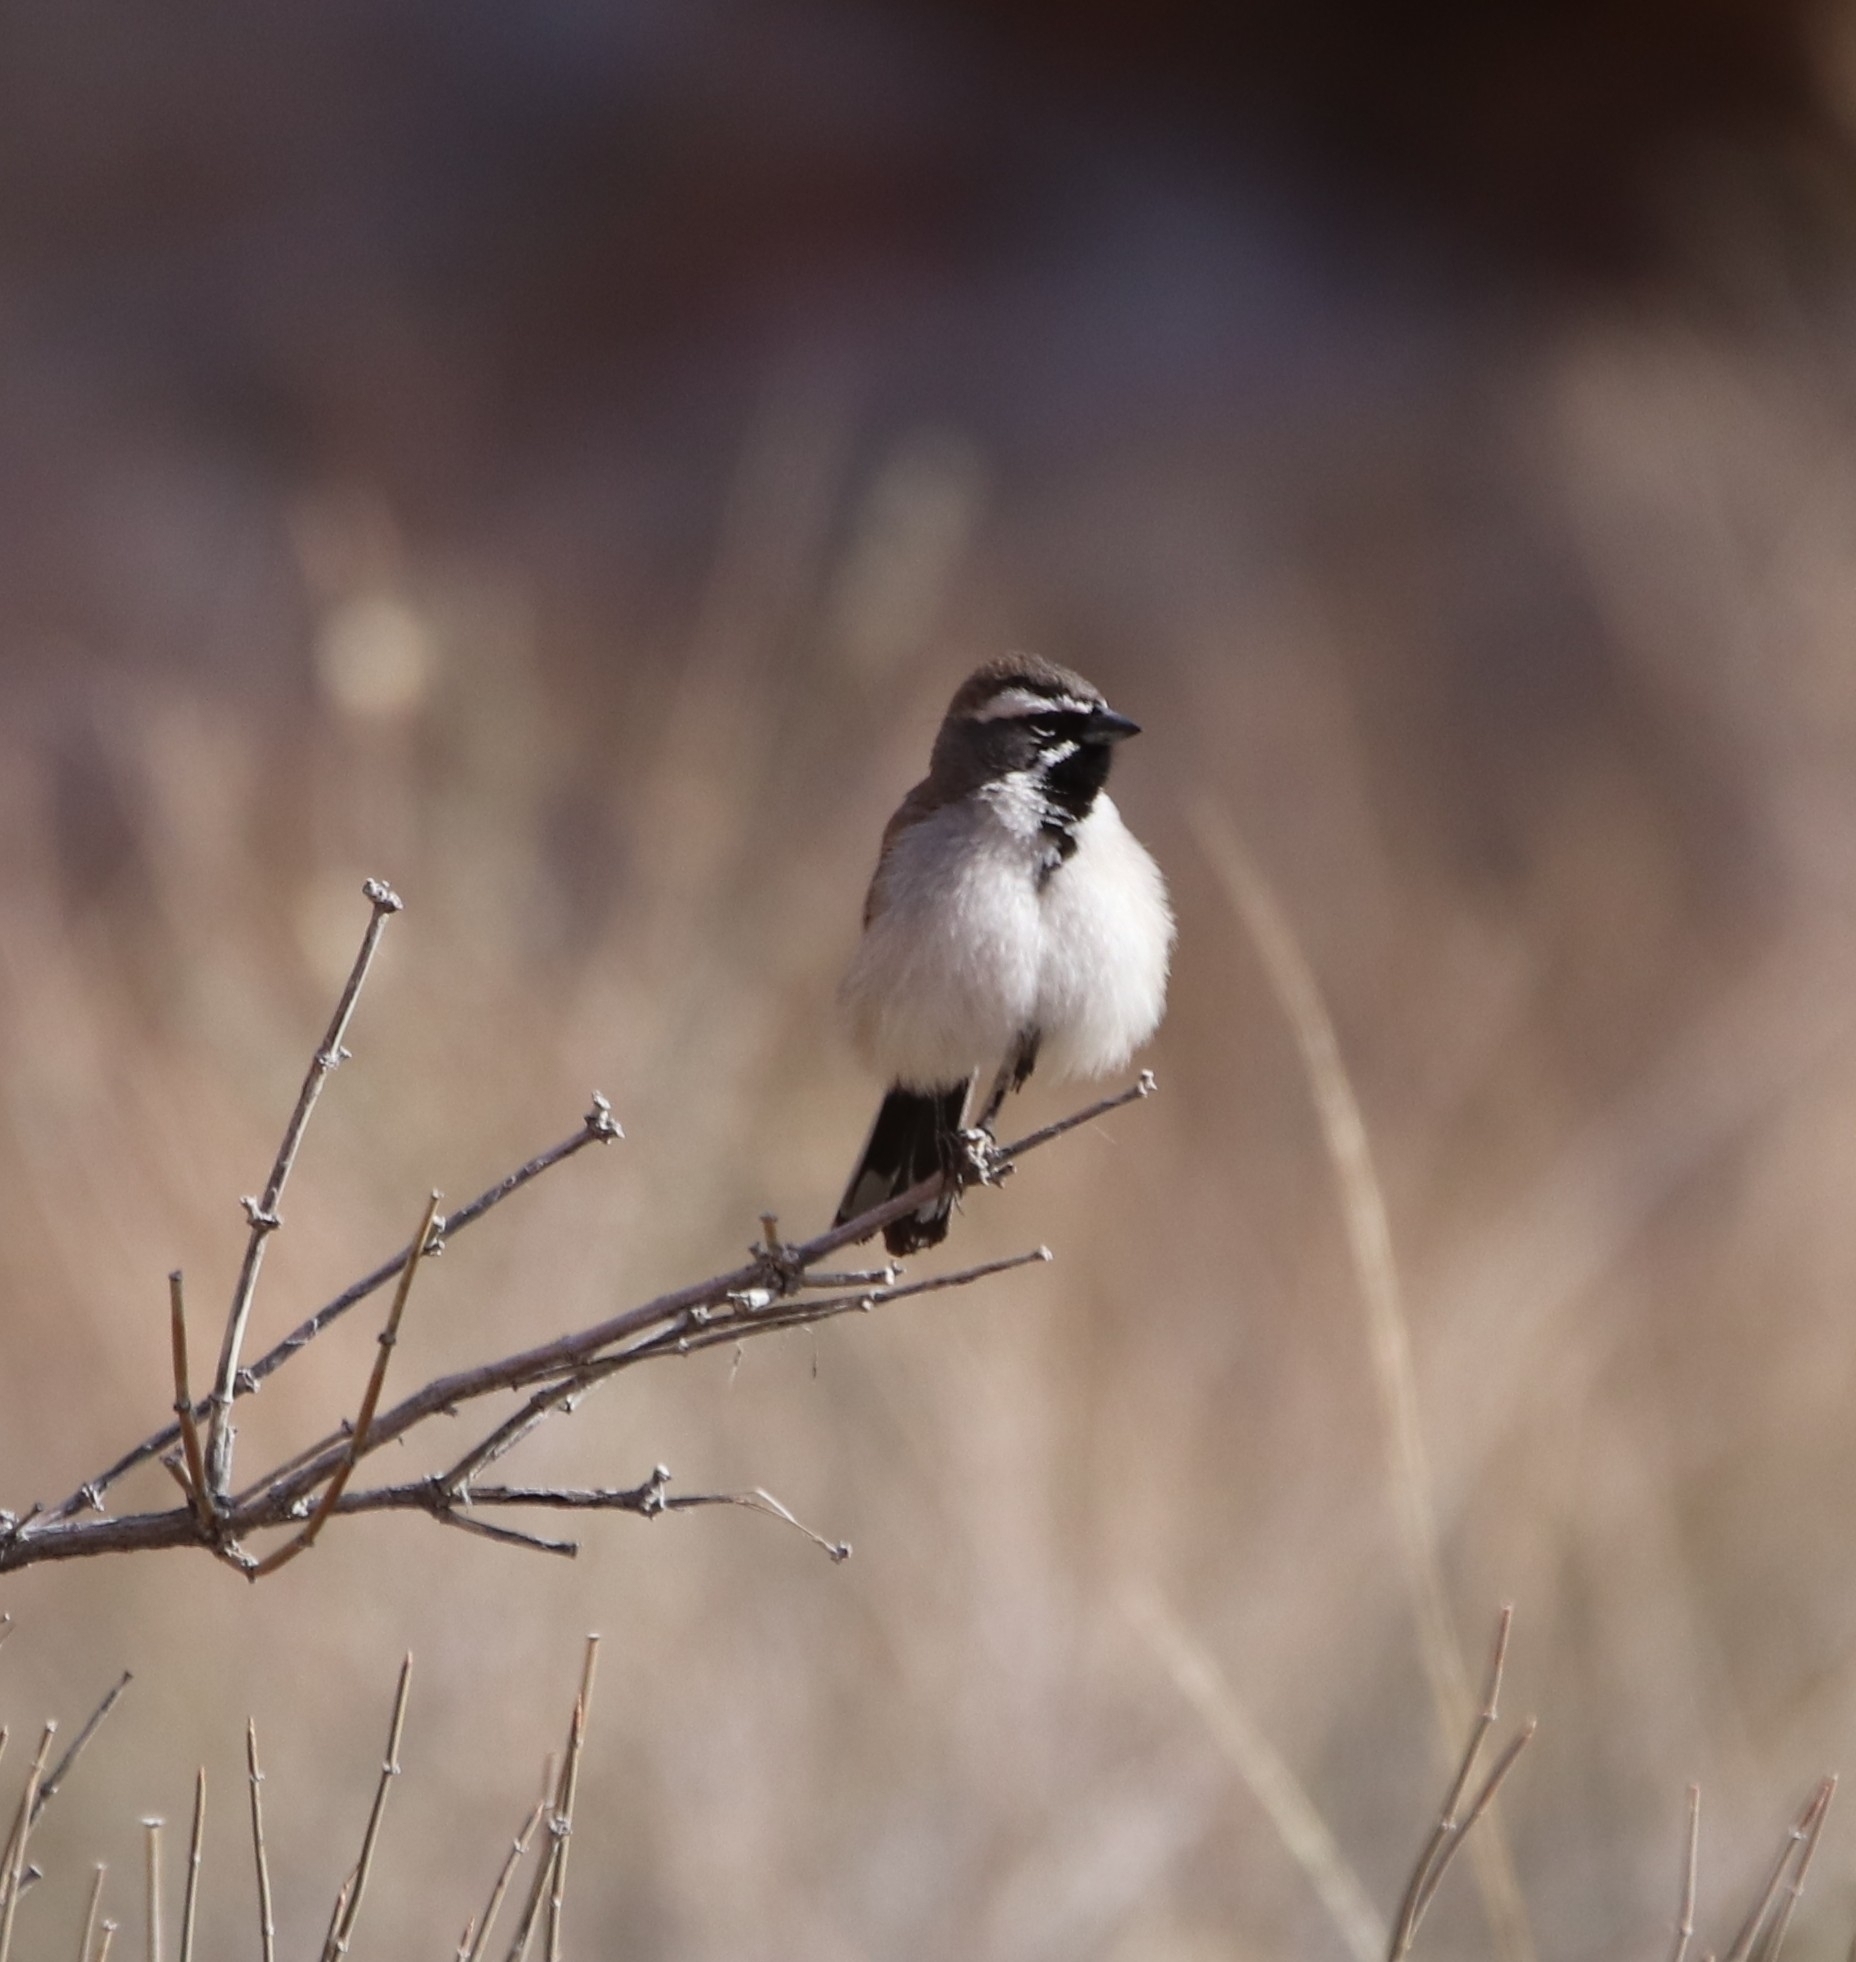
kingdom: Animalia
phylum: Chordata
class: Aves
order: Passeriformes
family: Passerellidae
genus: Amphispiza
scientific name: Amphispiza bilineata
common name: Black-throated sparrow
